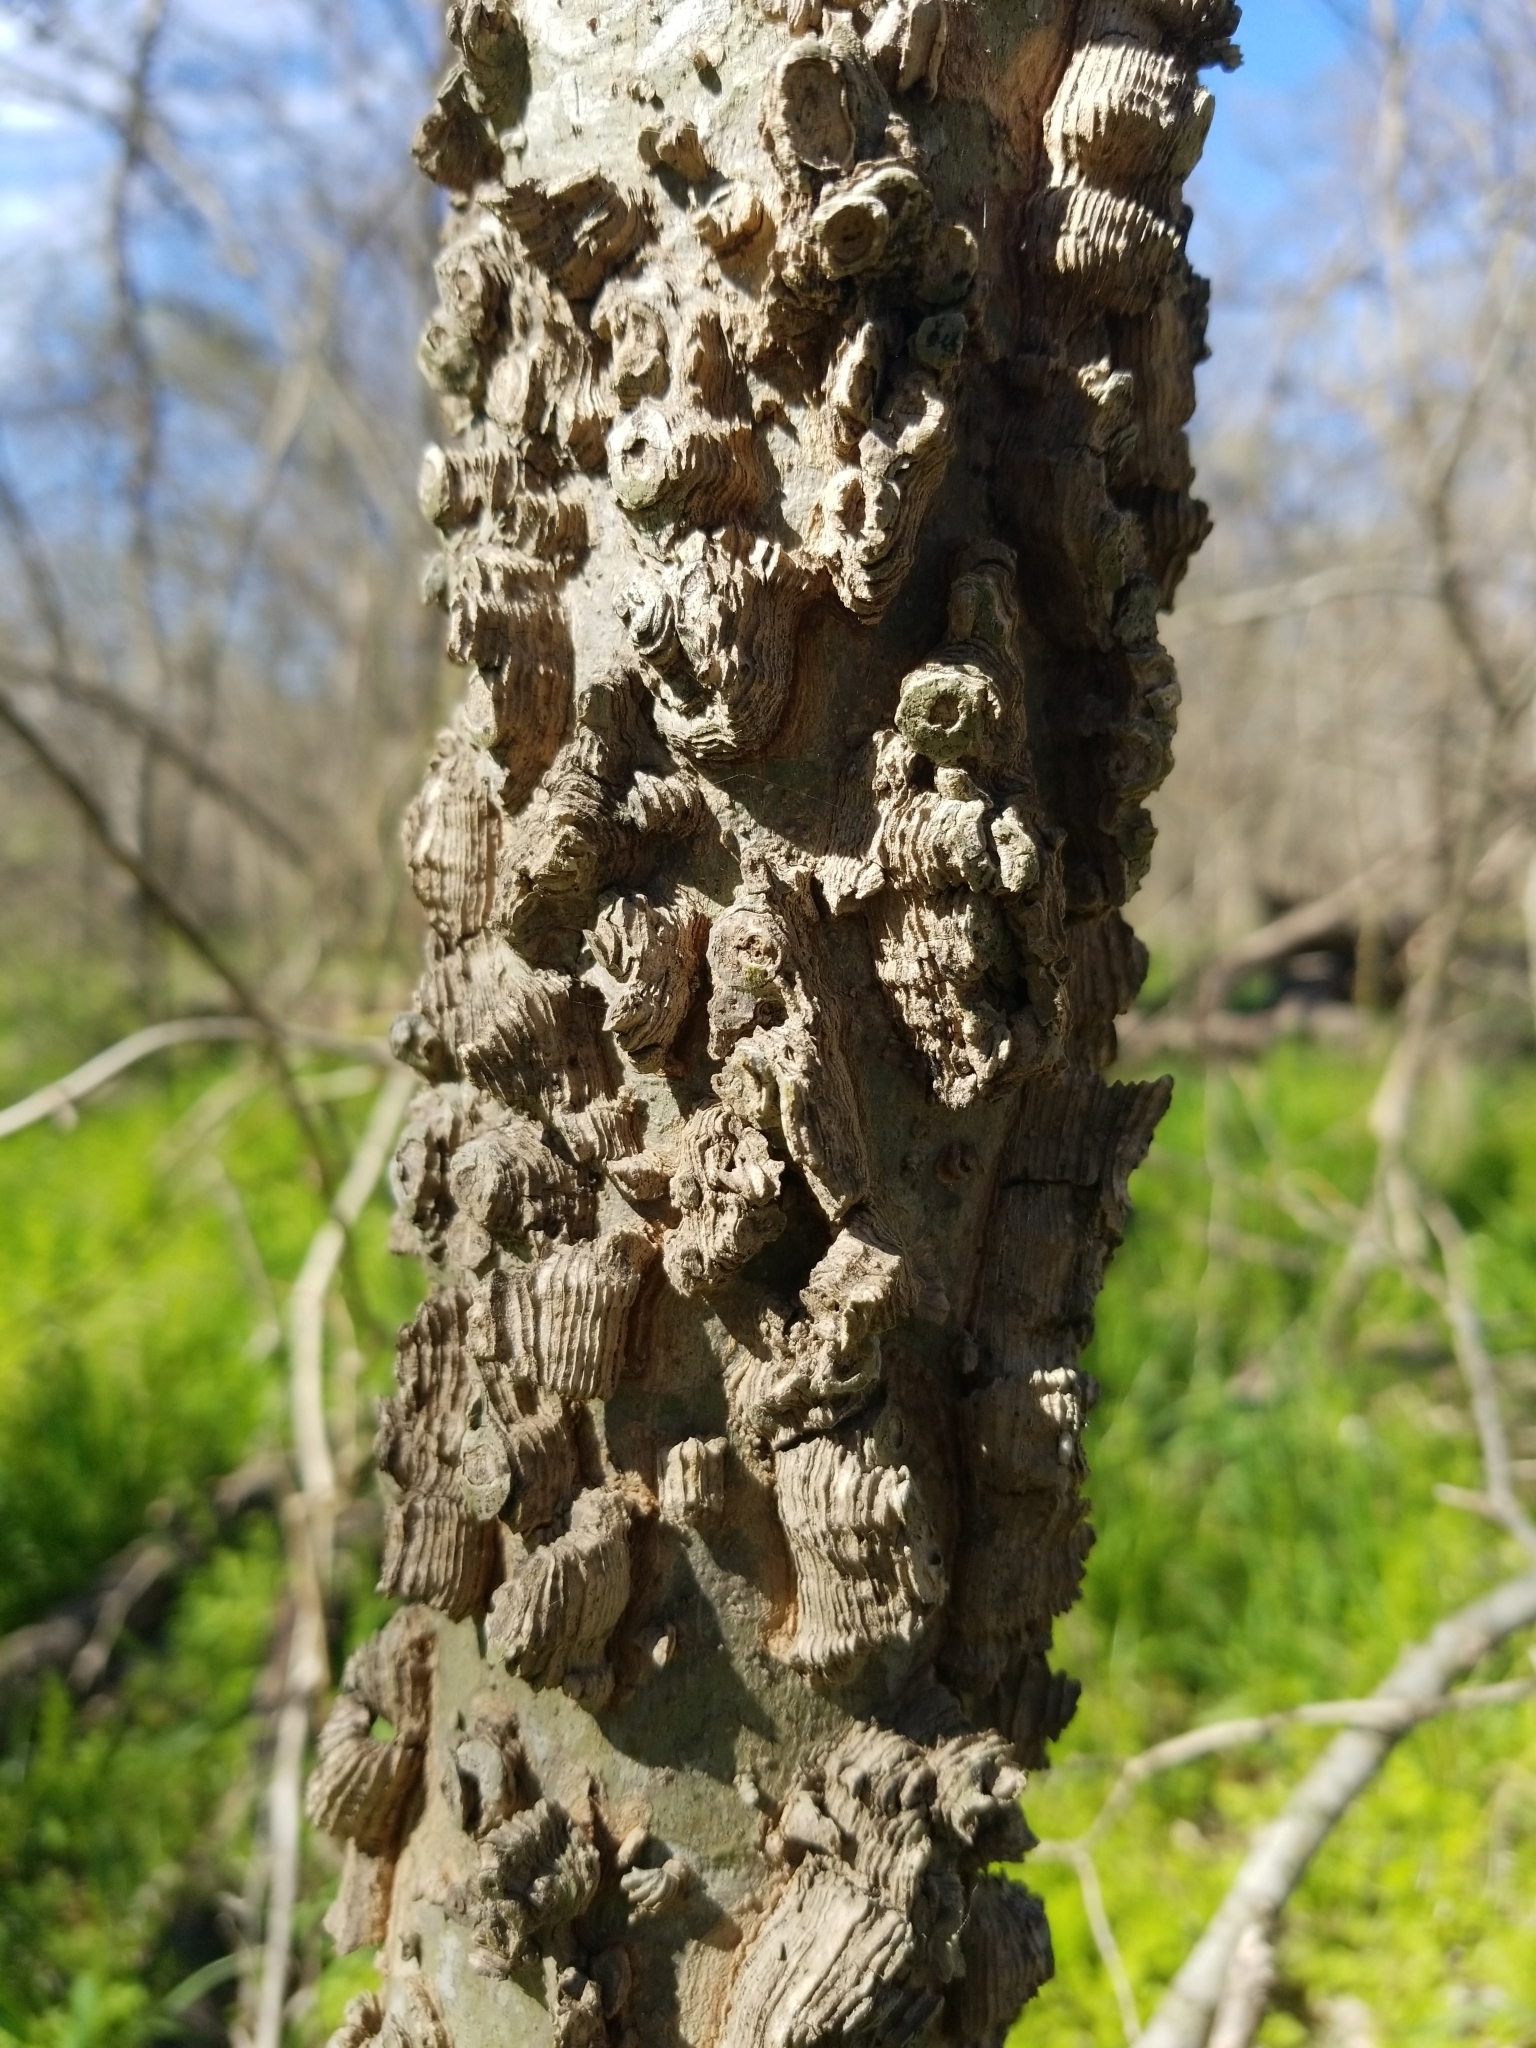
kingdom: Plantae
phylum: Tracheophyta
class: Magnoliopsida
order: Rosales
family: Cannabaceae
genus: Celtis
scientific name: Celtis laevigata
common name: Sugarberry
